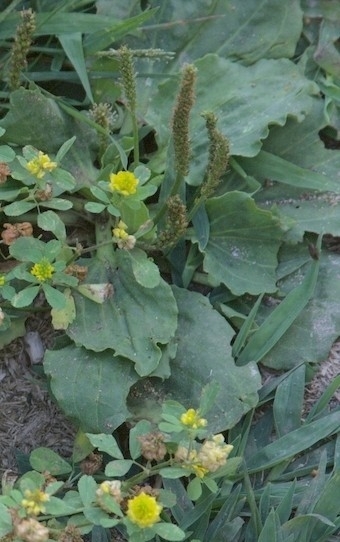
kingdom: Plantae
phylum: Tracheophyta
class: Magnoliopsida
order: Lamiales
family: Plantaginaceae
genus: Plantago
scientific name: Plantago major
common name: Common plantain
